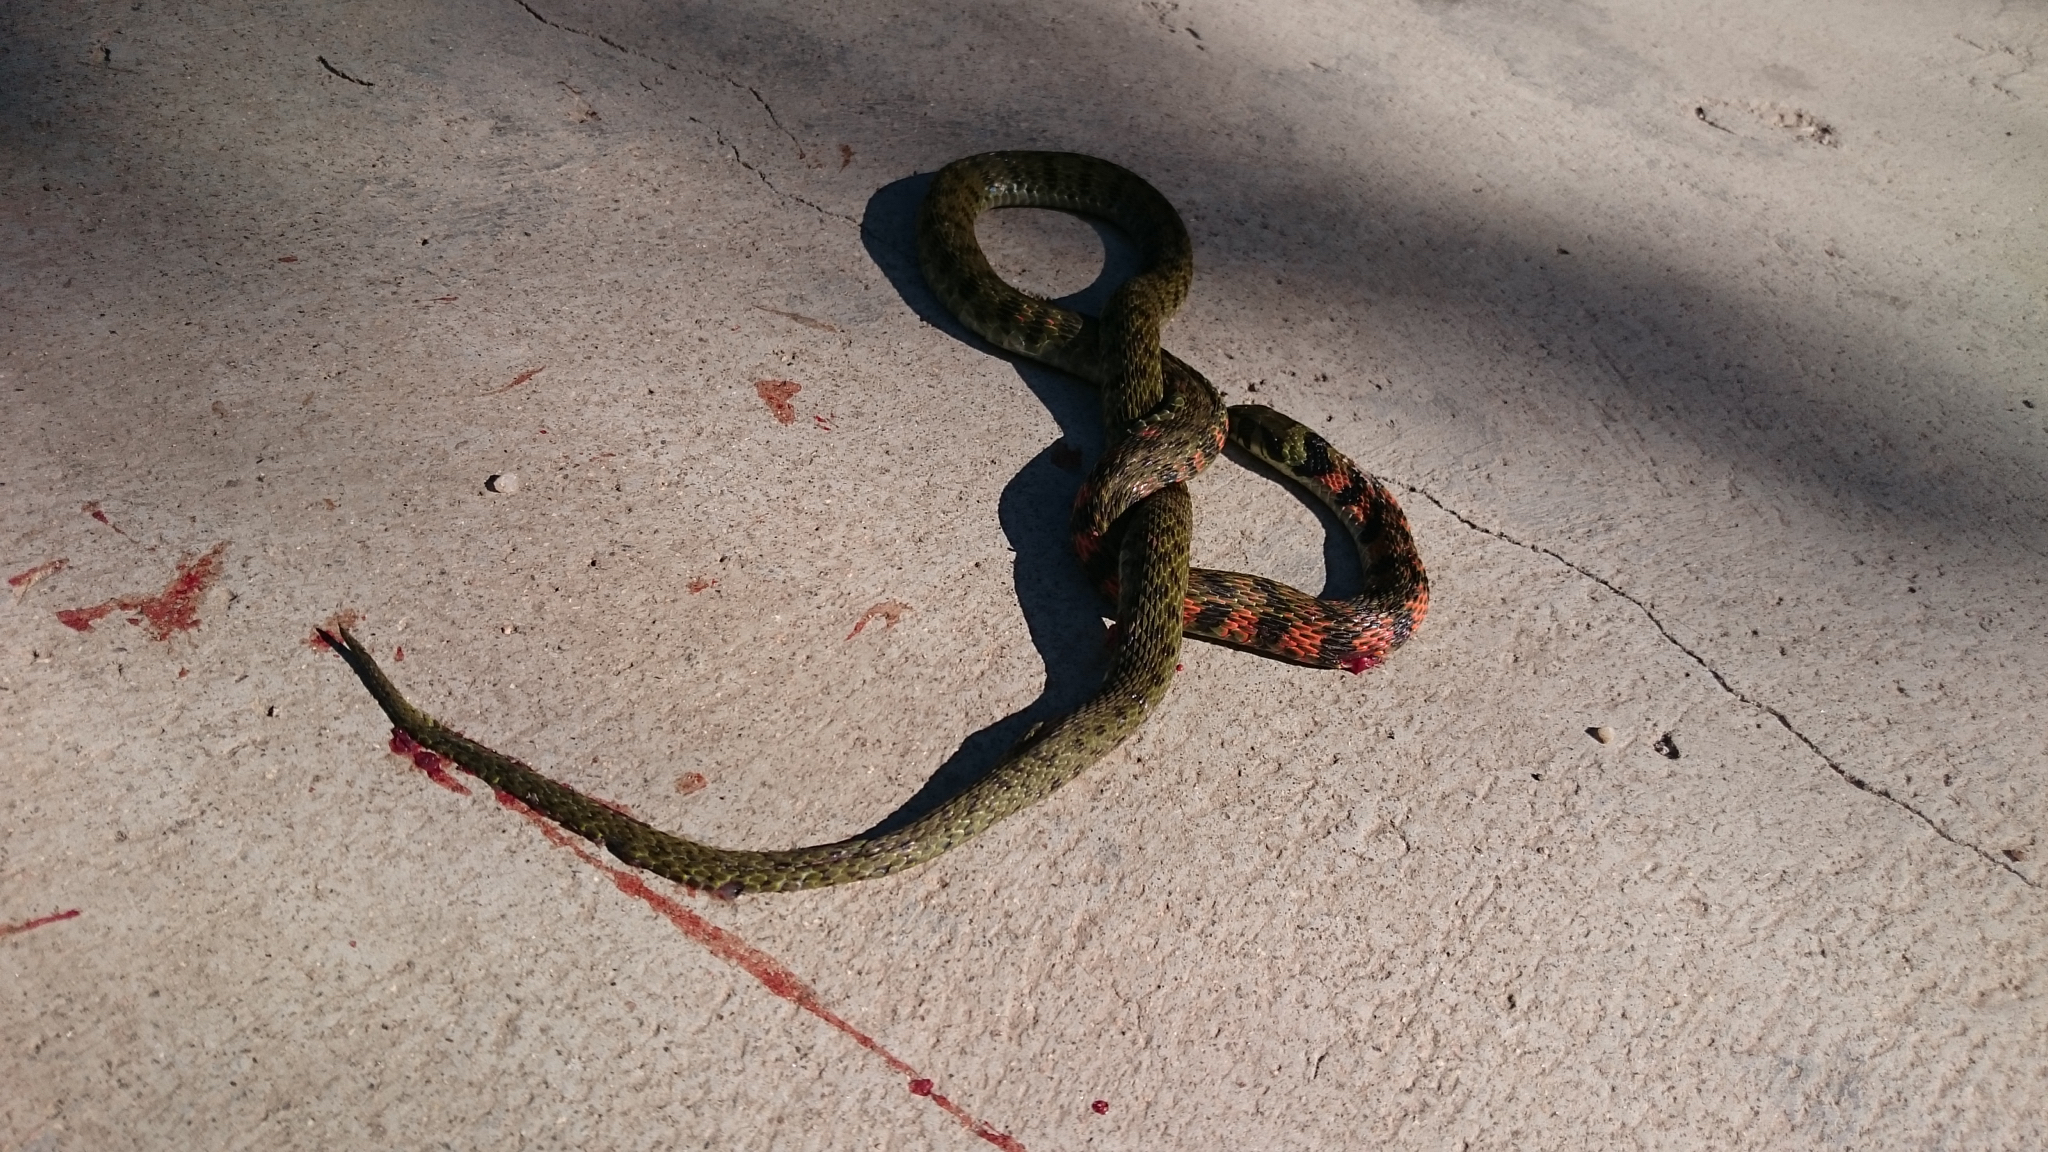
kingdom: Animalia
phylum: Chordata
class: Squamata
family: Colubridae
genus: Rhabdophis
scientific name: Rhabdophis tigrinus
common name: Tiger keelback
